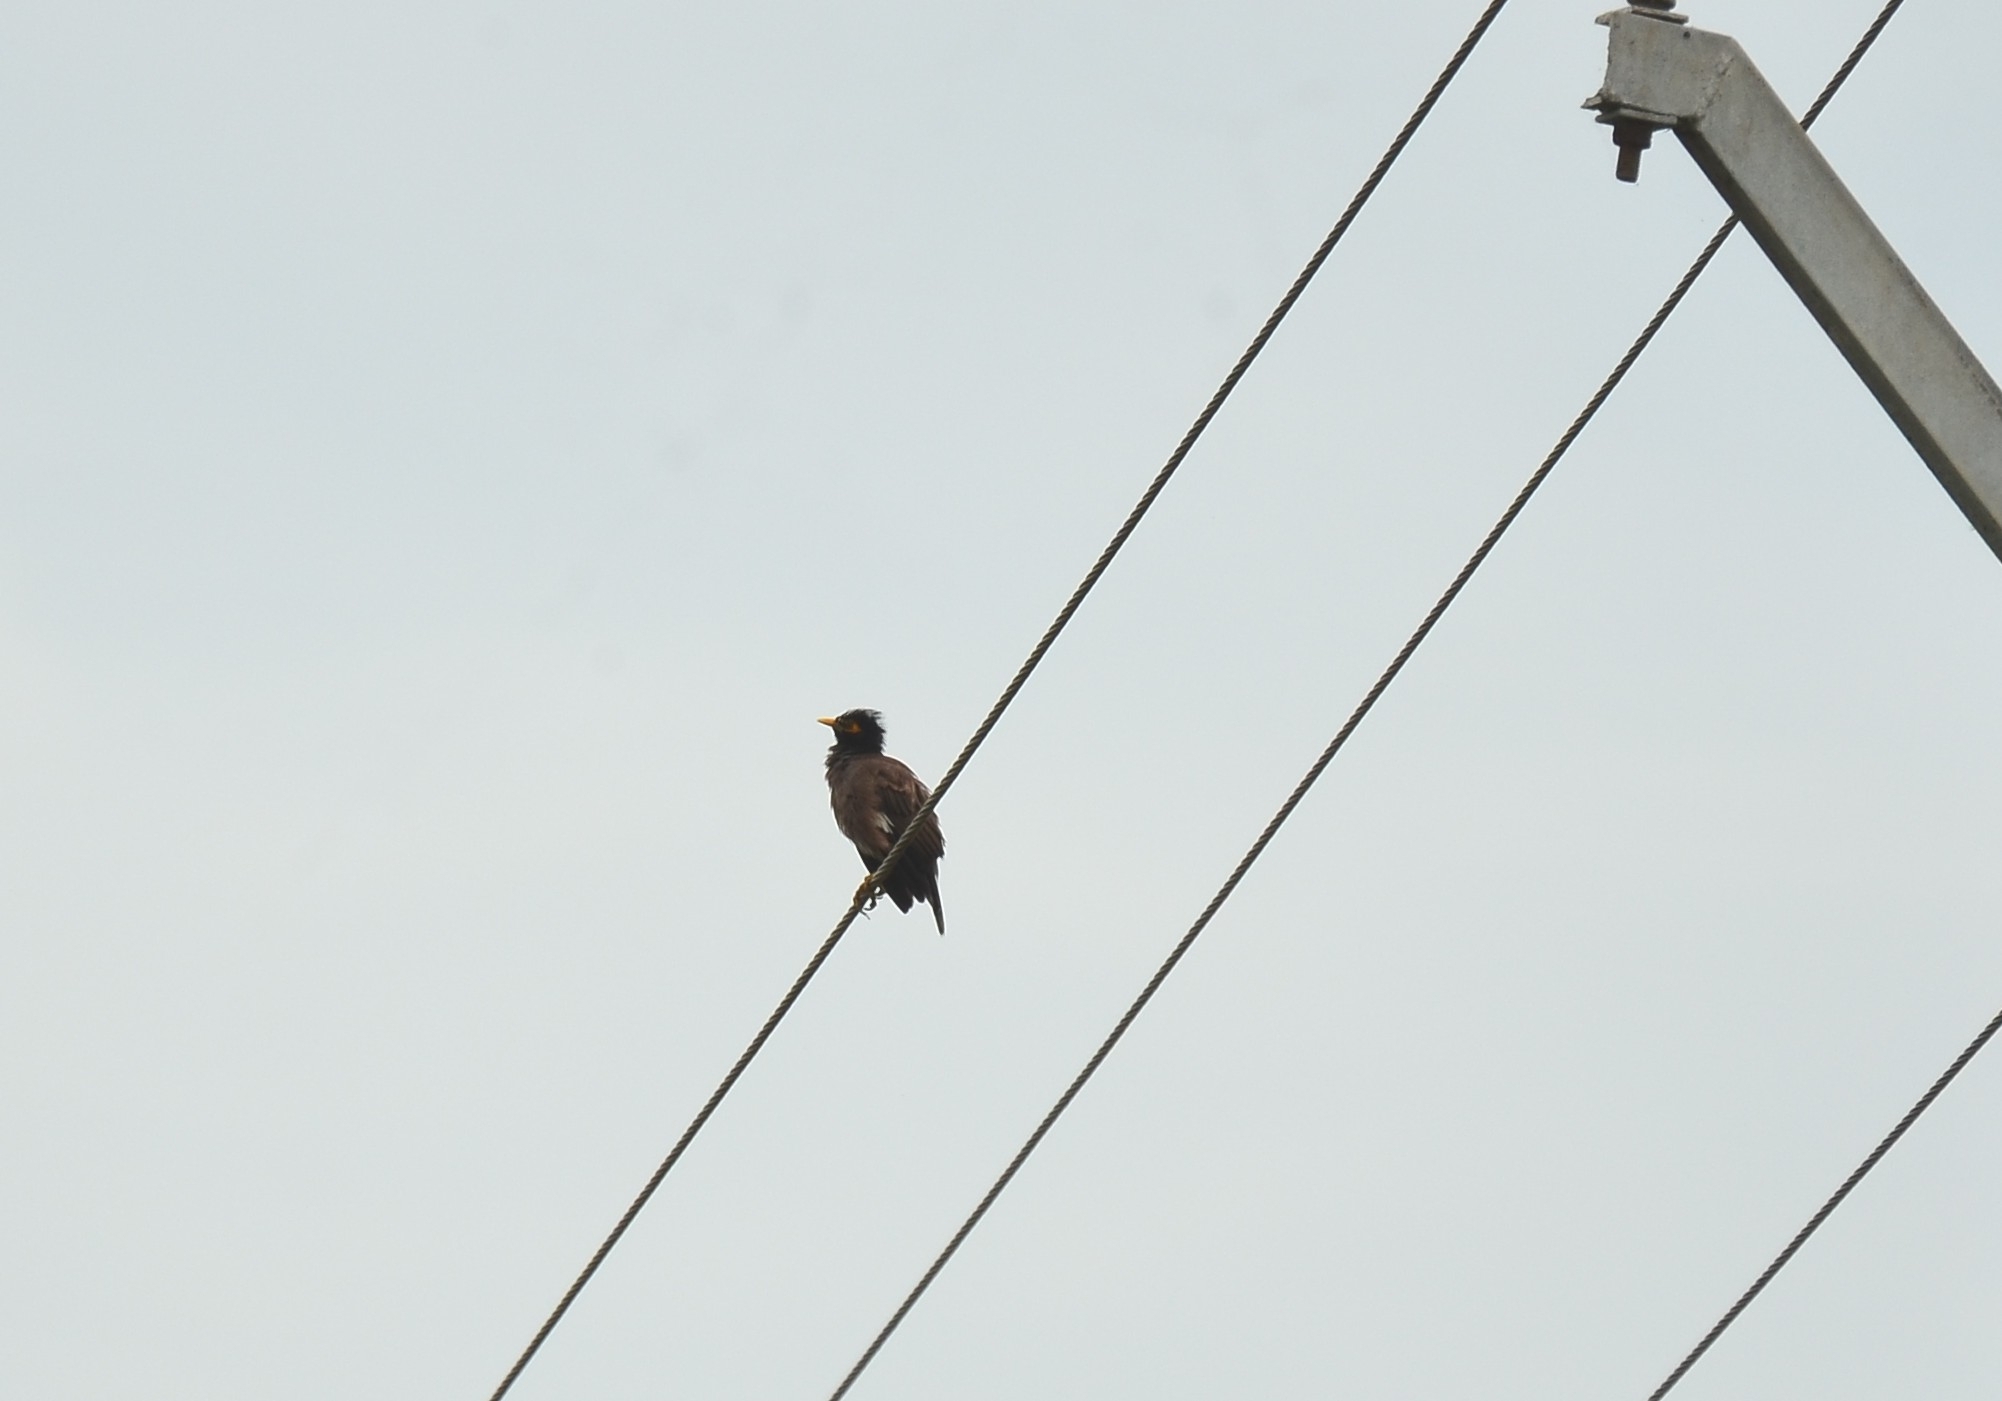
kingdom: Animalia
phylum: Chordata
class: Aves
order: Passeriformes
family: Sturnidae
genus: Acridotheres
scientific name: Acridotheres tristis
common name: Common myna
